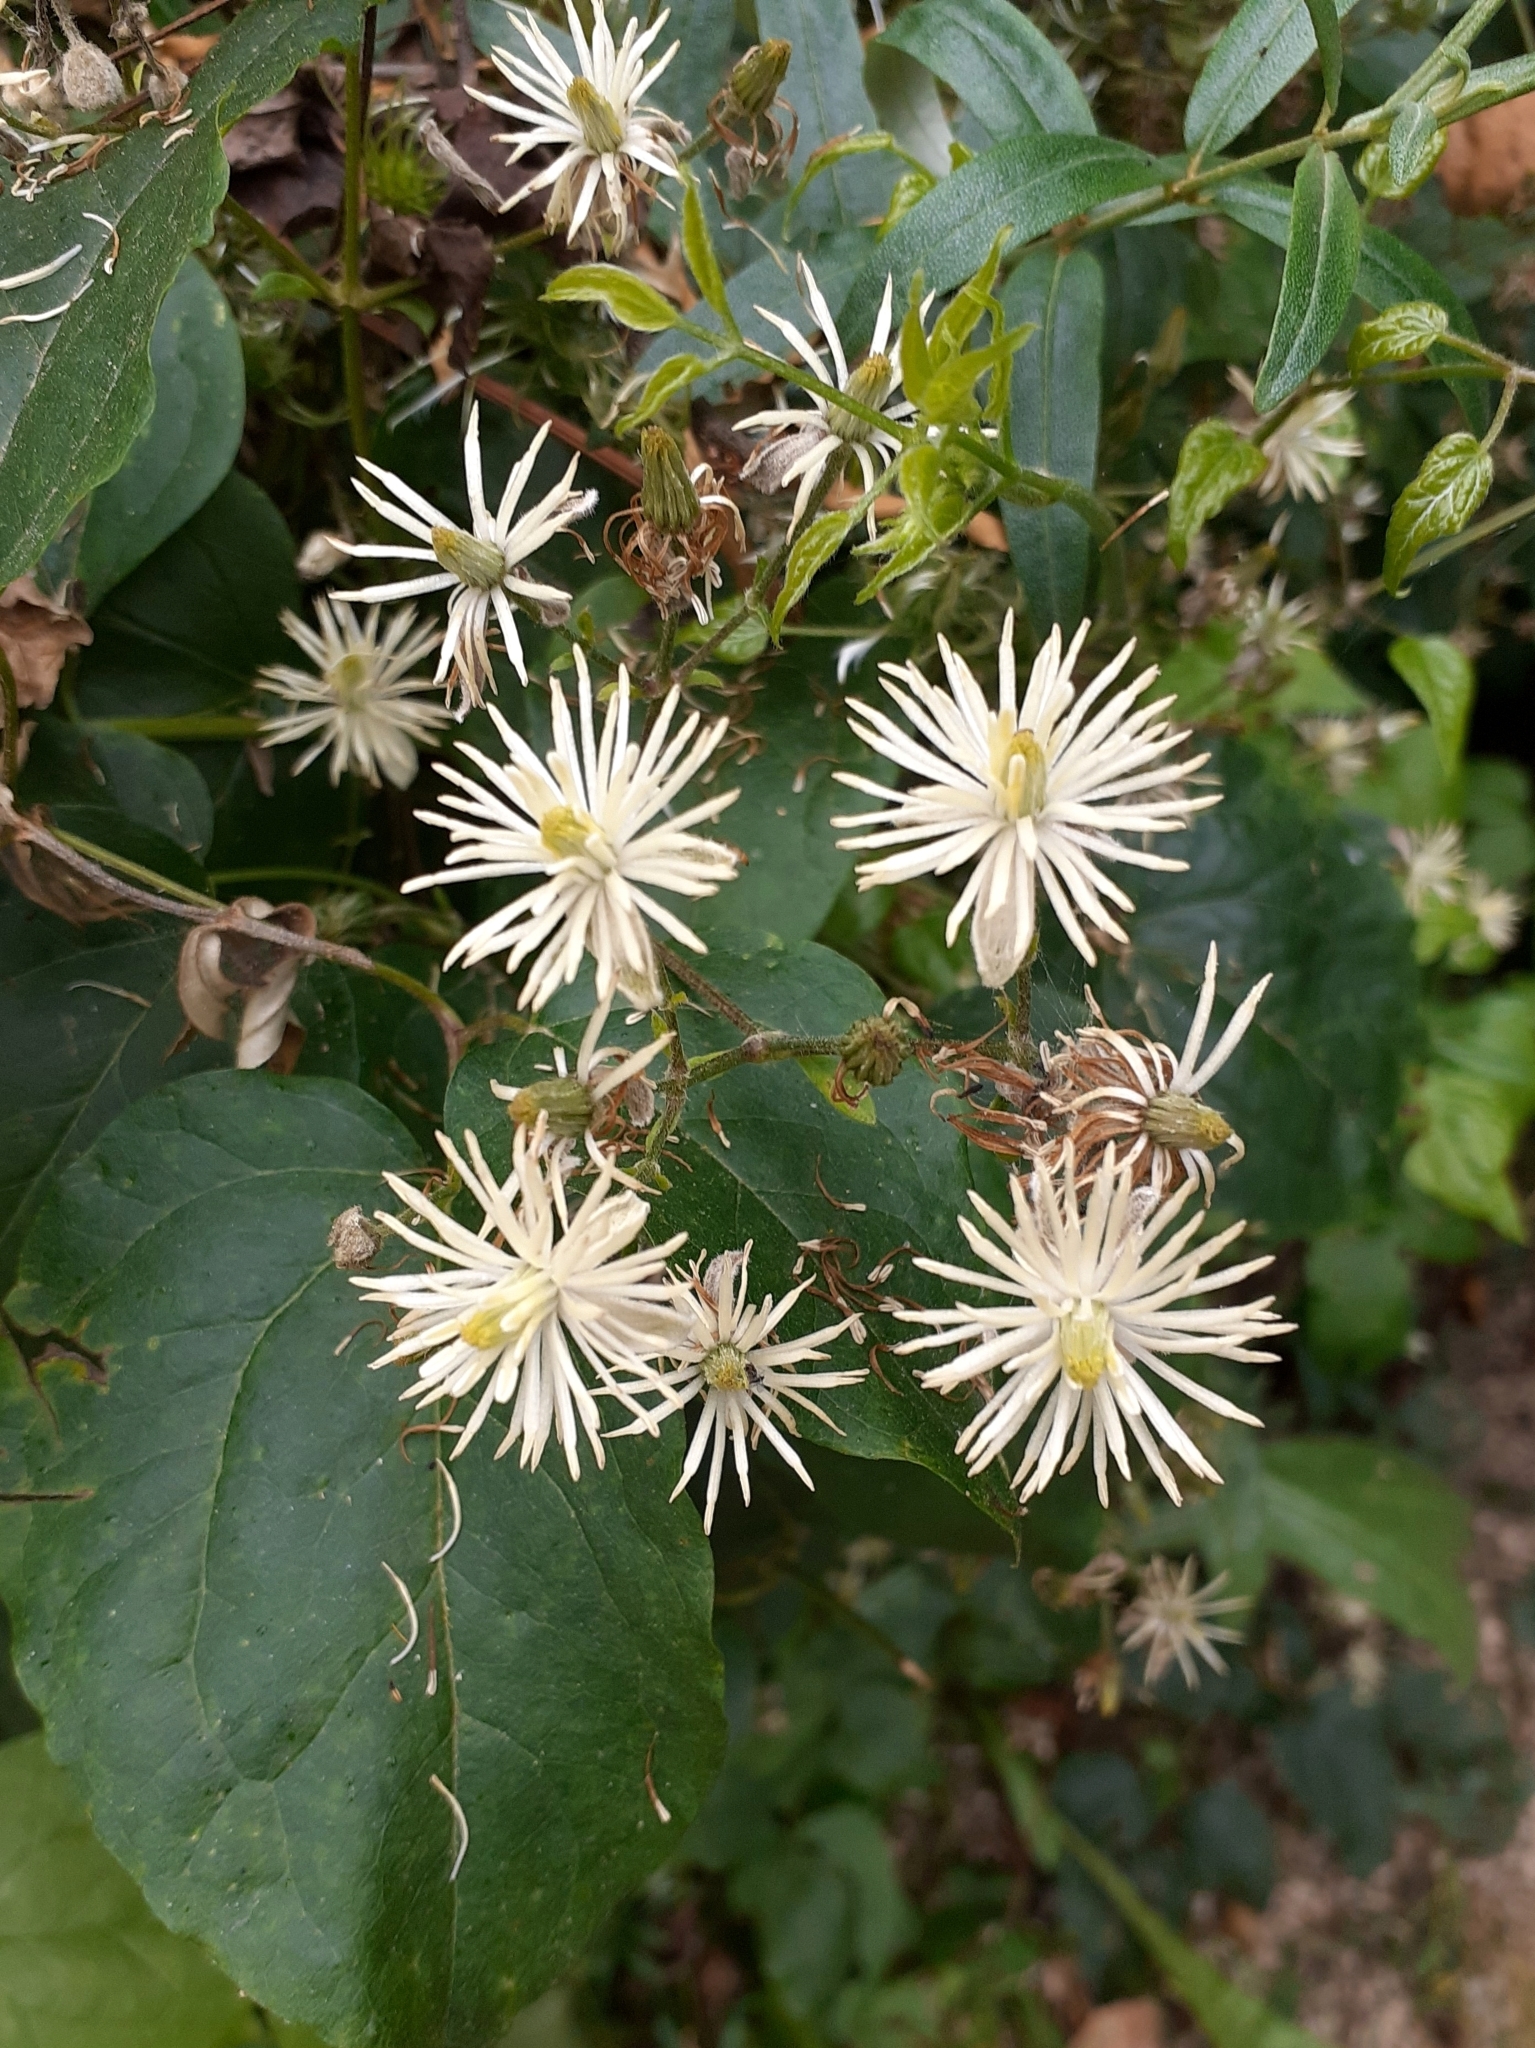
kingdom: Plantae
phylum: Tracheophyta
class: Magnoliopsida
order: Ranunculales
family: Ranunculaceae
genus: Clematis
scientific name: Clematis vitalba
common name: Evergreen clematis
